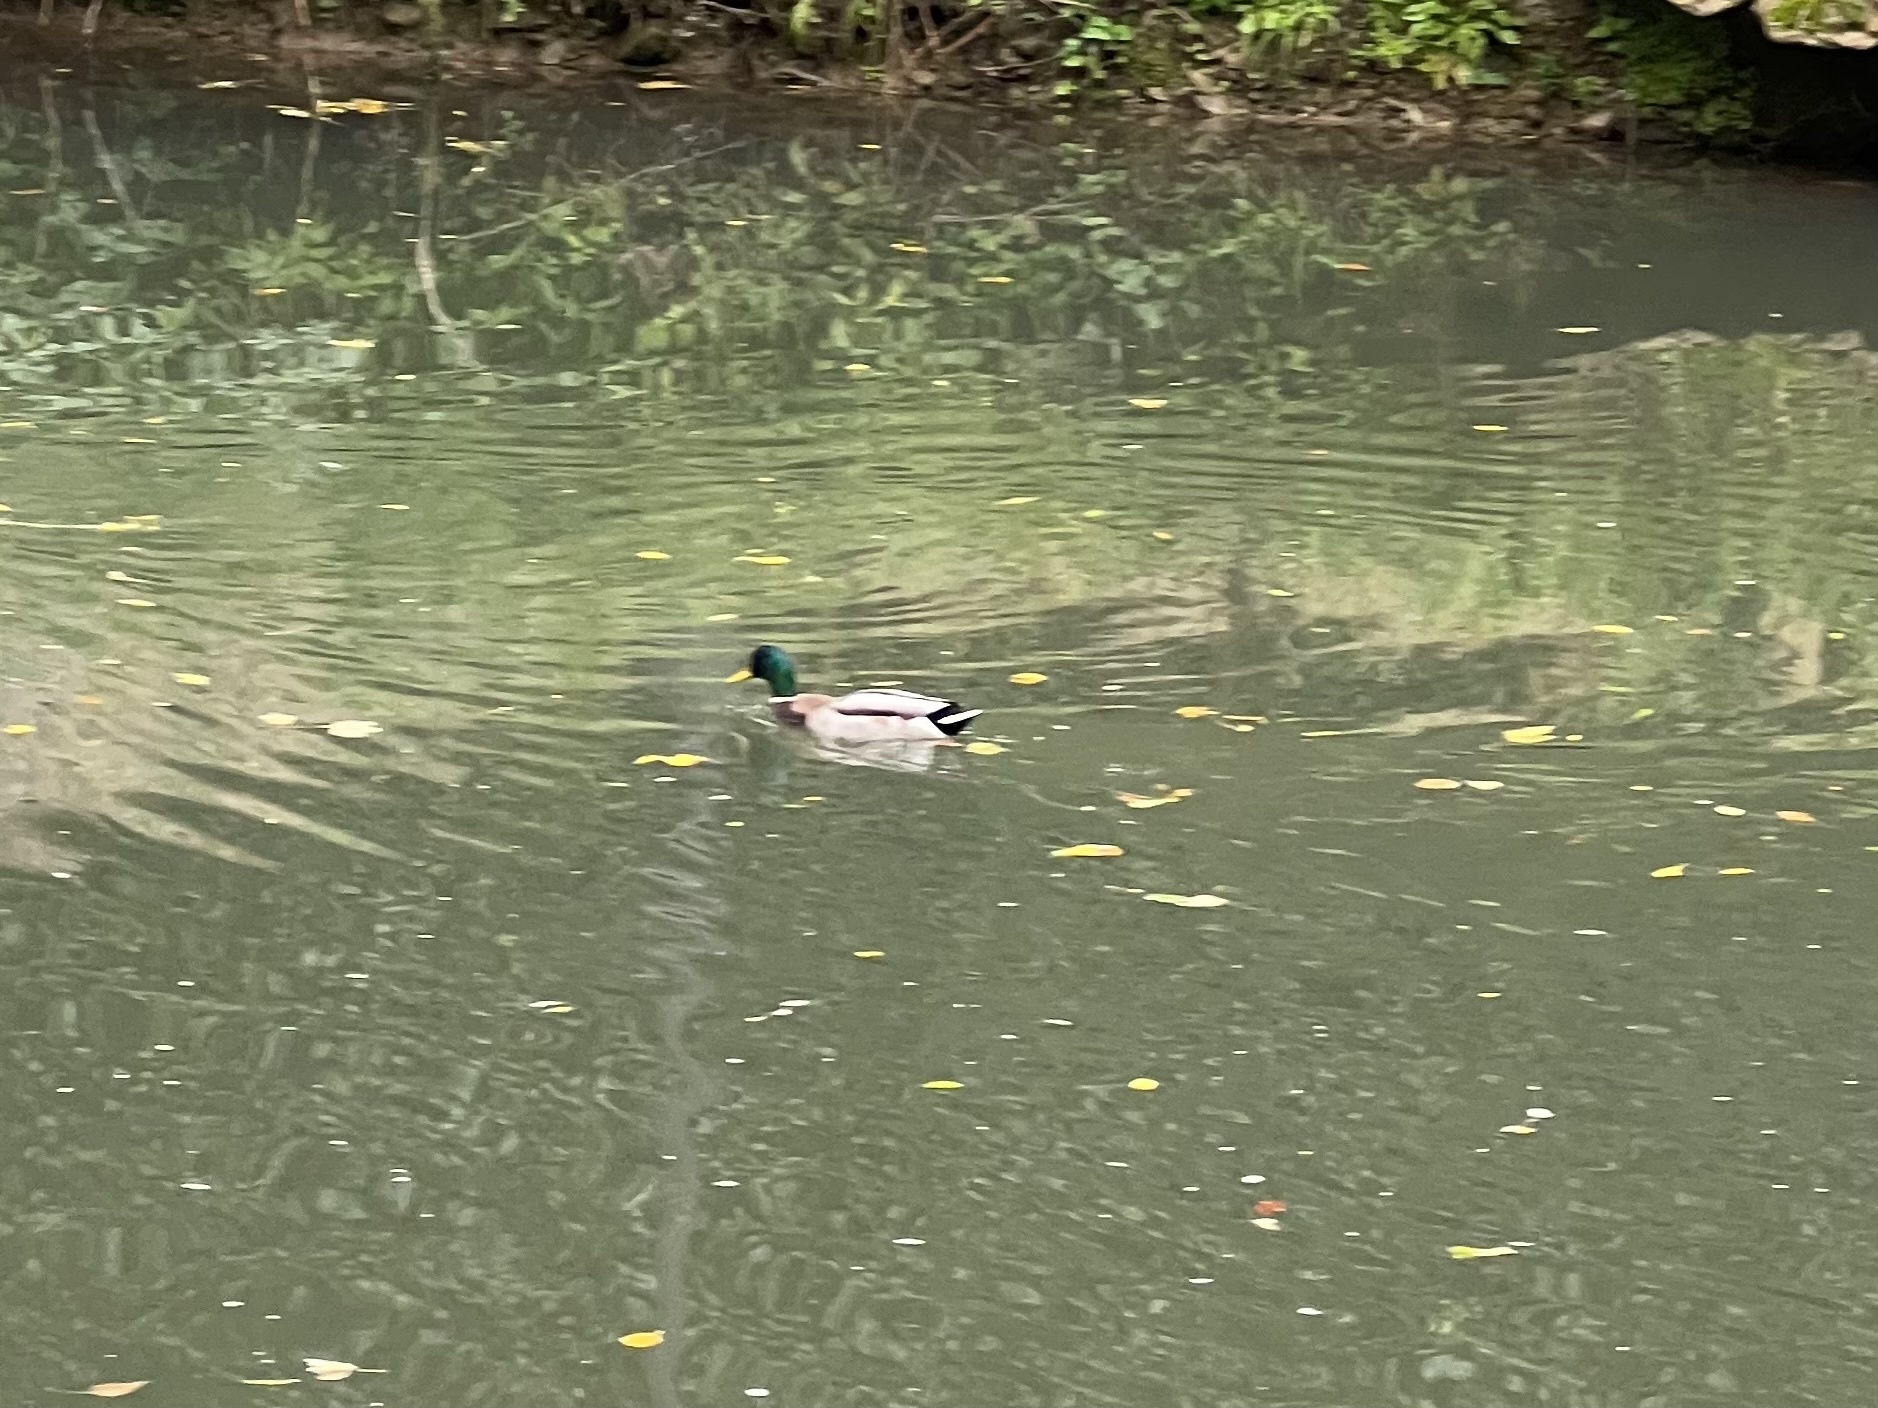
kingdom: Animalia
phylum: Chordata
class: Aves
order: Anseriformes
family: Anatidae
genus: Anas
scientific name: Anas platyrhynchos
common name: Mallard
